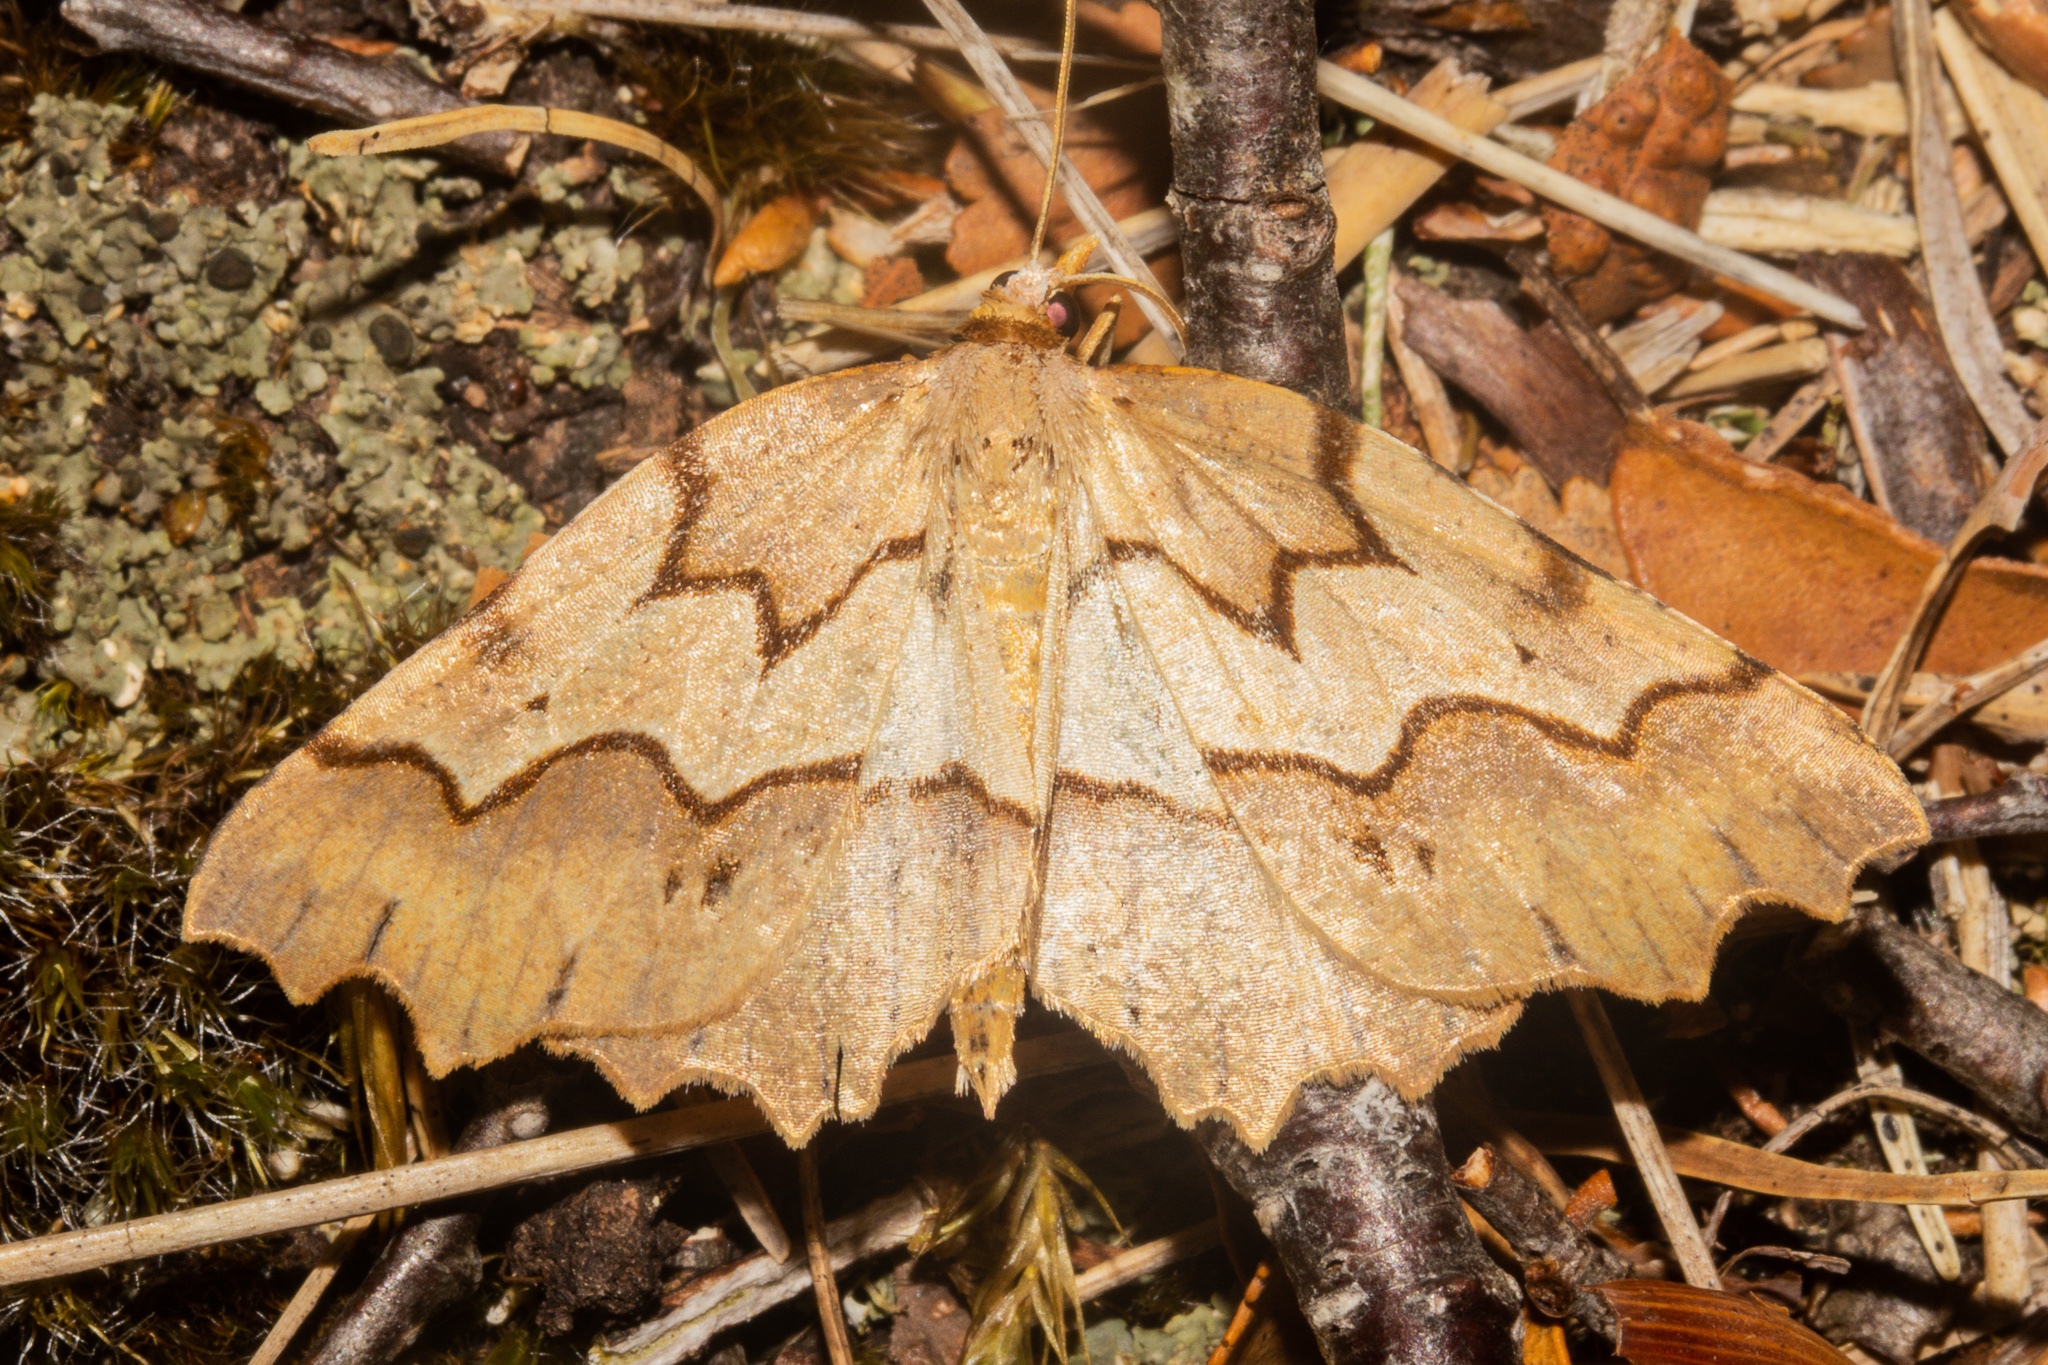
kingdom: Animalia
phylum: Arthropoda
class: Insecta
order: Lepidoptera
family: Geometridae
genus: Ischalis
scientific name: Ischalis fortinata
